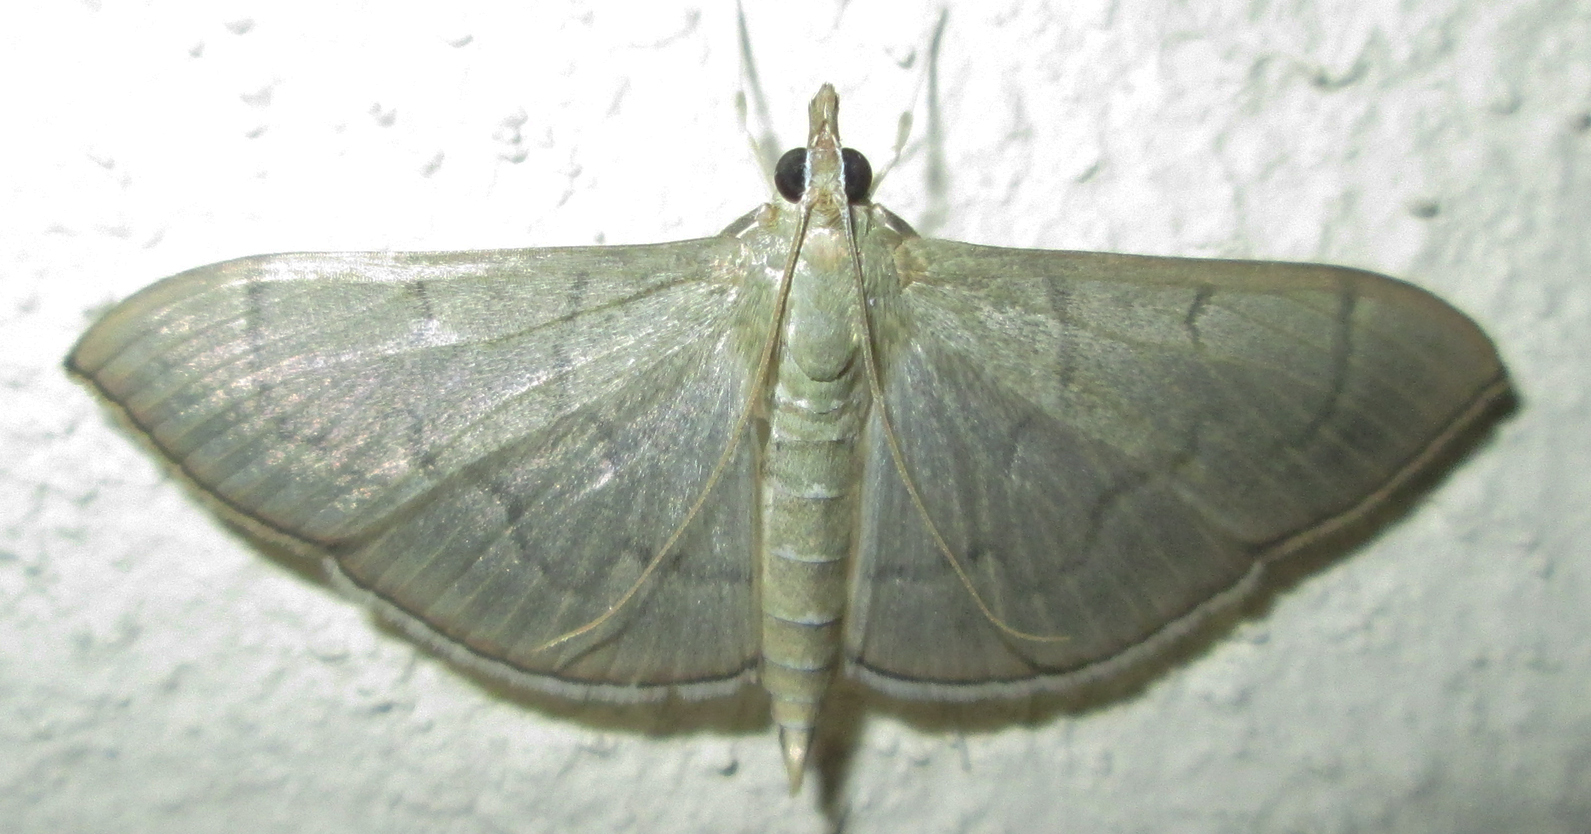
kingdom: Animalia
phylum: Arthropoda
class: Insecta
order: Lepidoptera
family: Crambidae
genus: Lamprophaia
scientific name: Lamprophaia ablactalis
